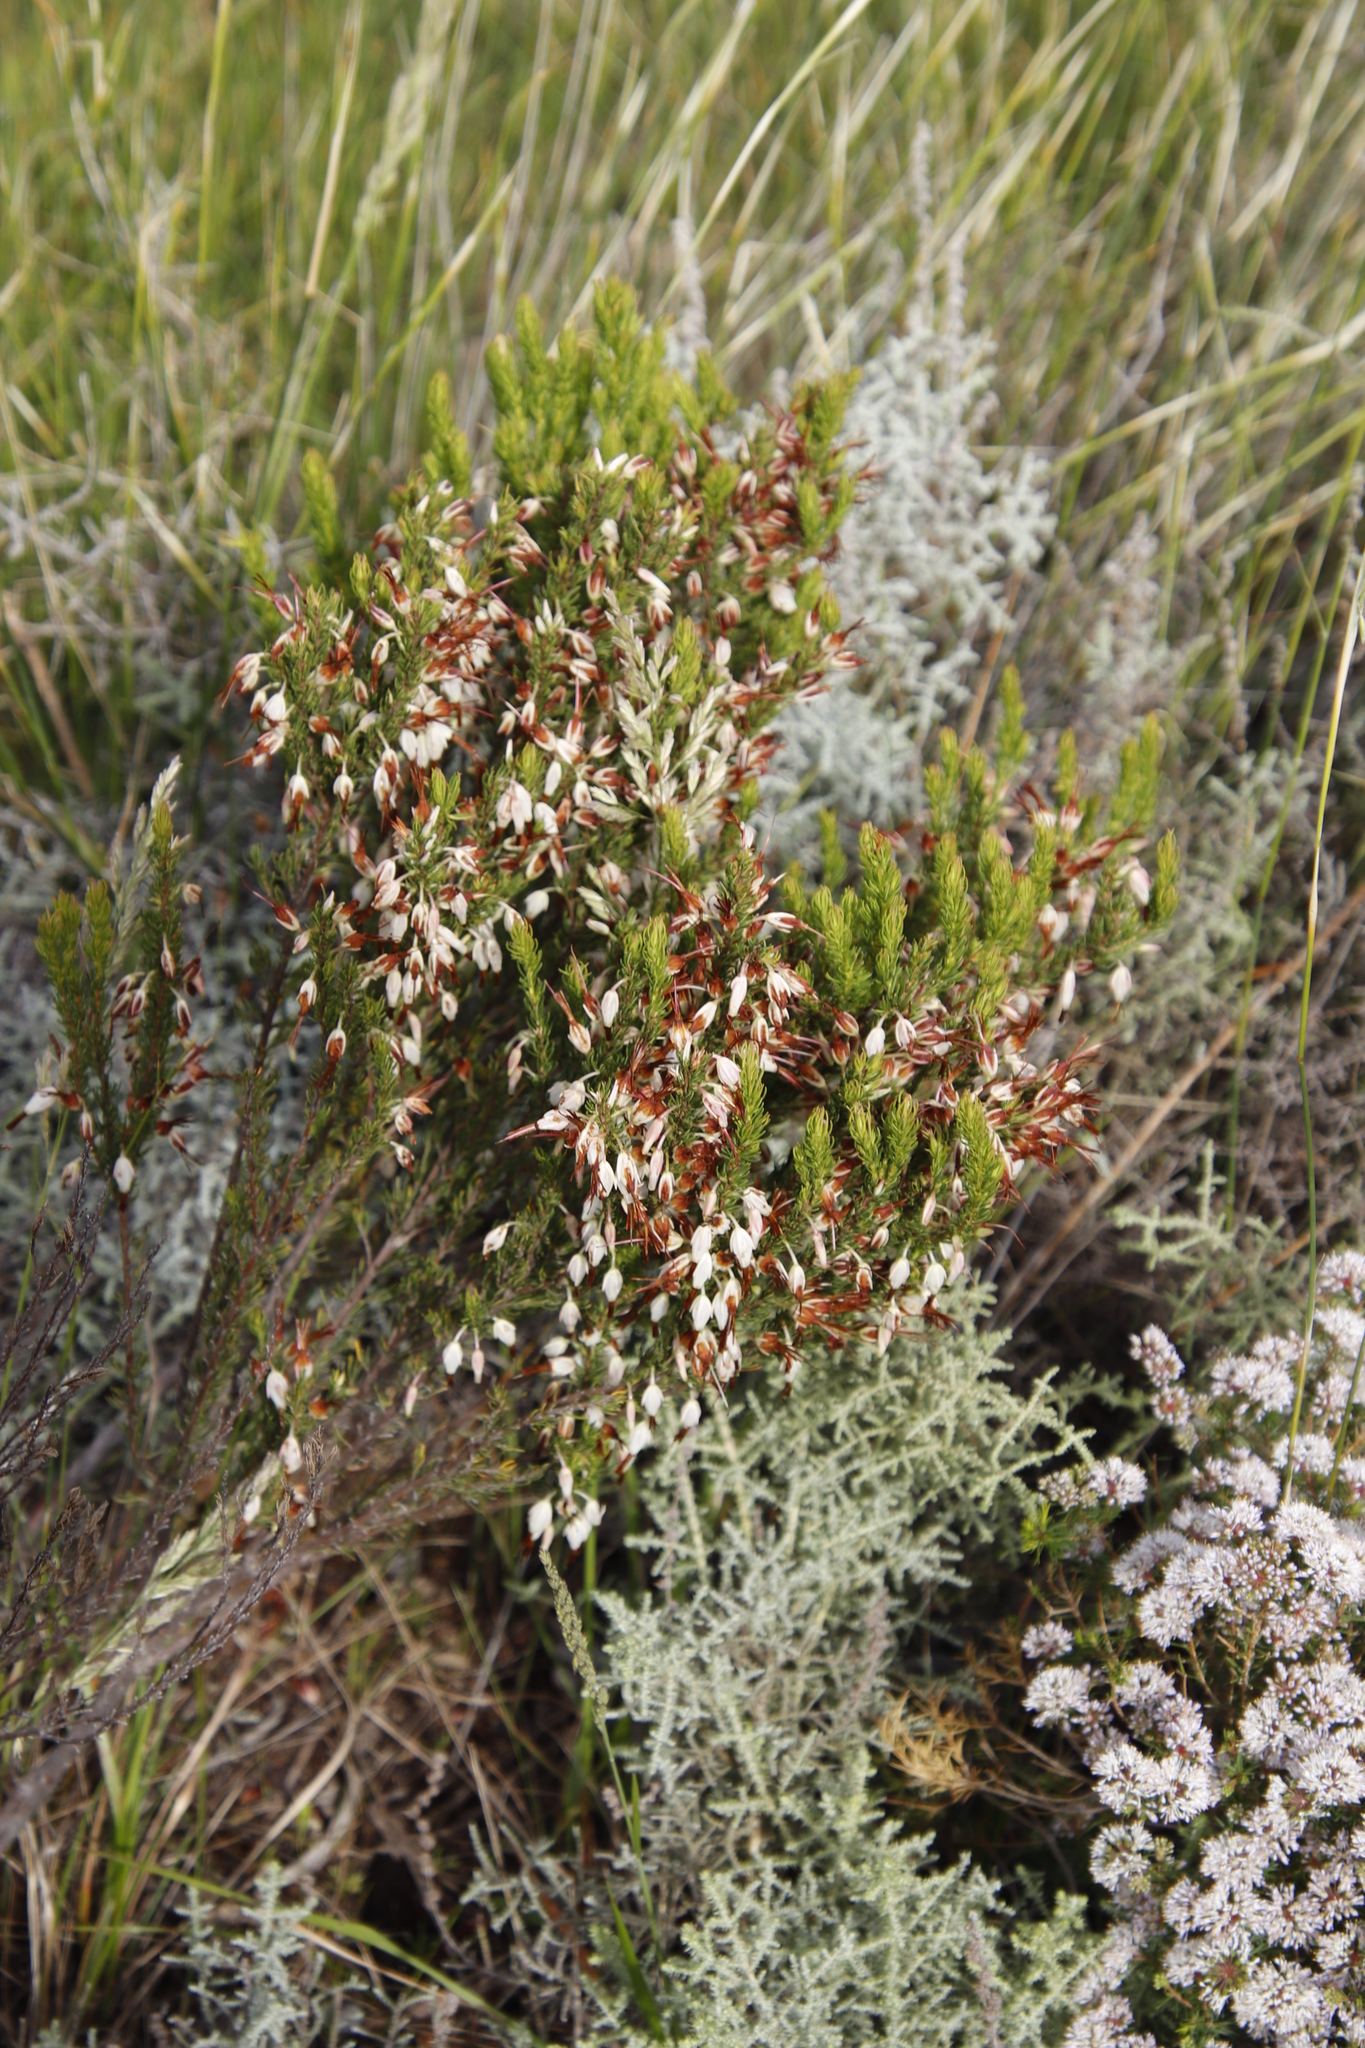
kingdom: Plantae
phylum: Tracheophyta
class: Magnoliopsida
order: Ericales
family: Ericaceae
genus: Erica
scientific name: Erica plukenetii
